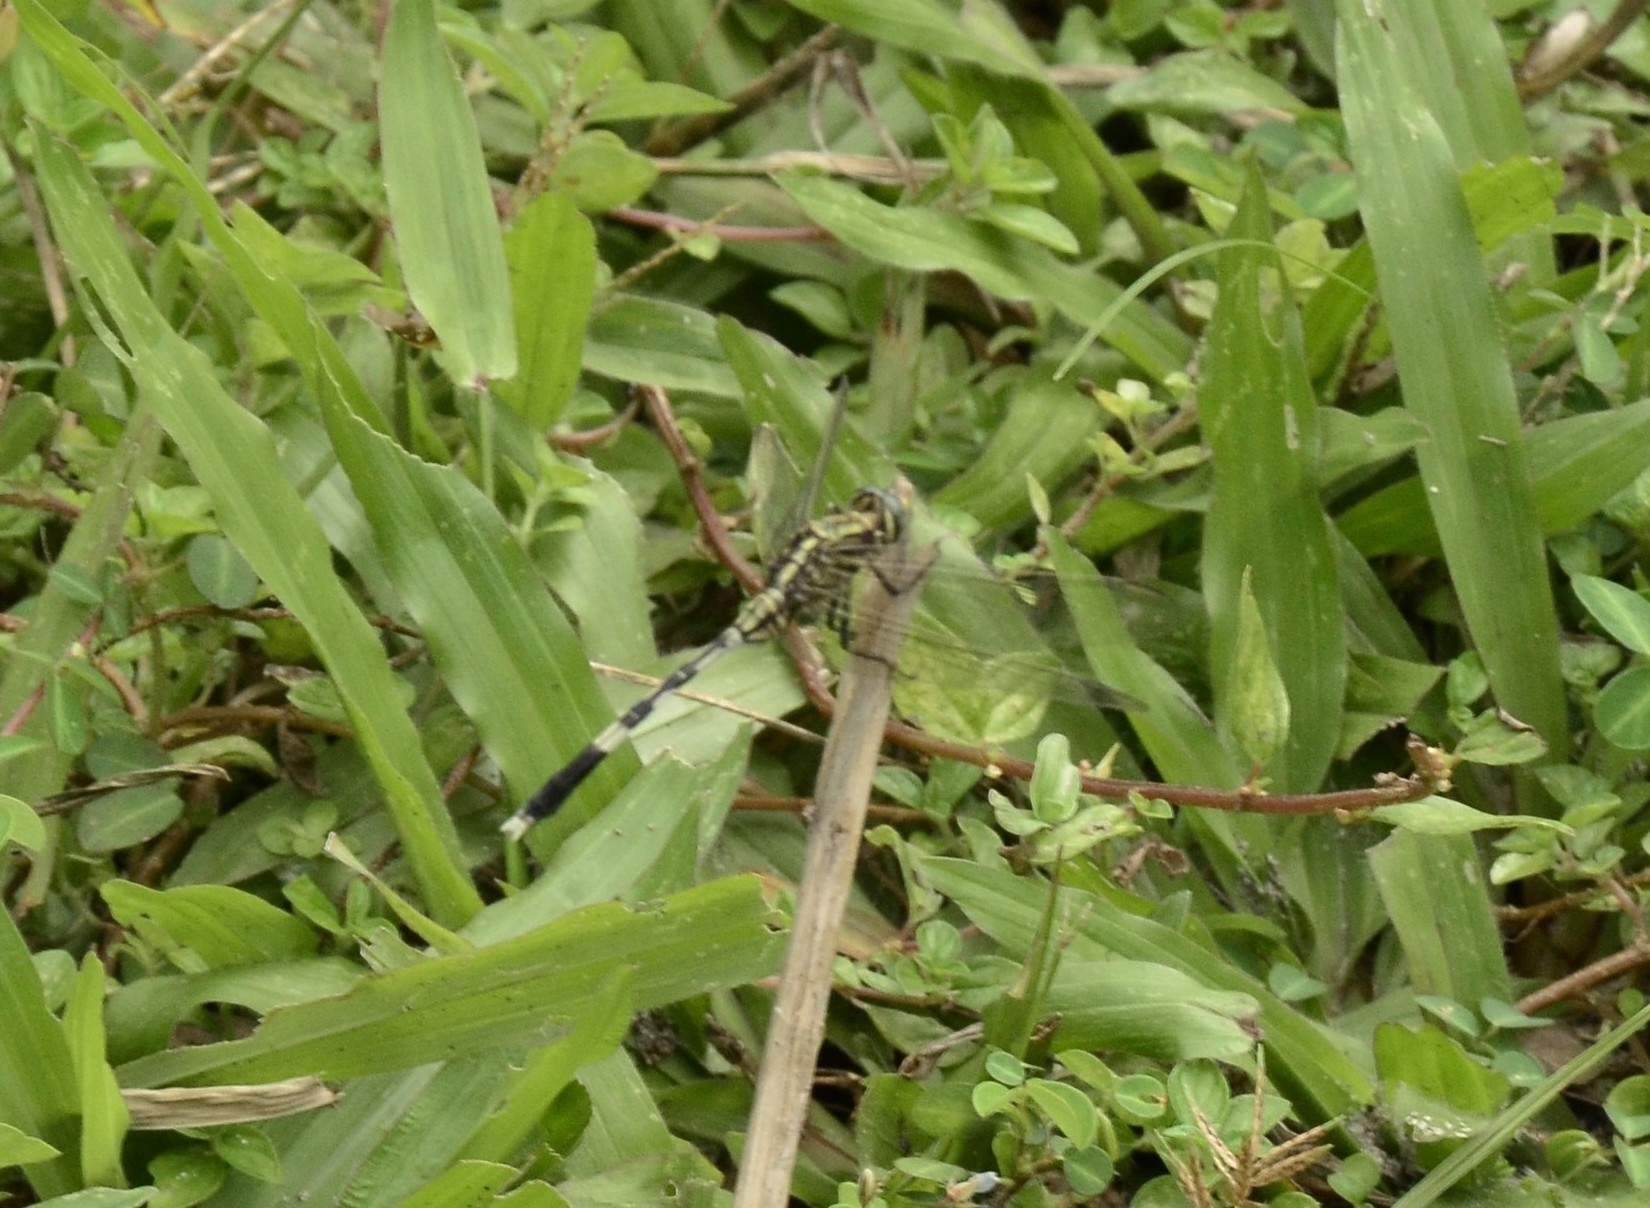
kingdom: Animalia
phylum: Arthropoda
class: Insecta
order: Odonata
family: Libellulidae
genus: Orthetrum
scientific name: Orthetrum sabina
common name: Slender skimmer
